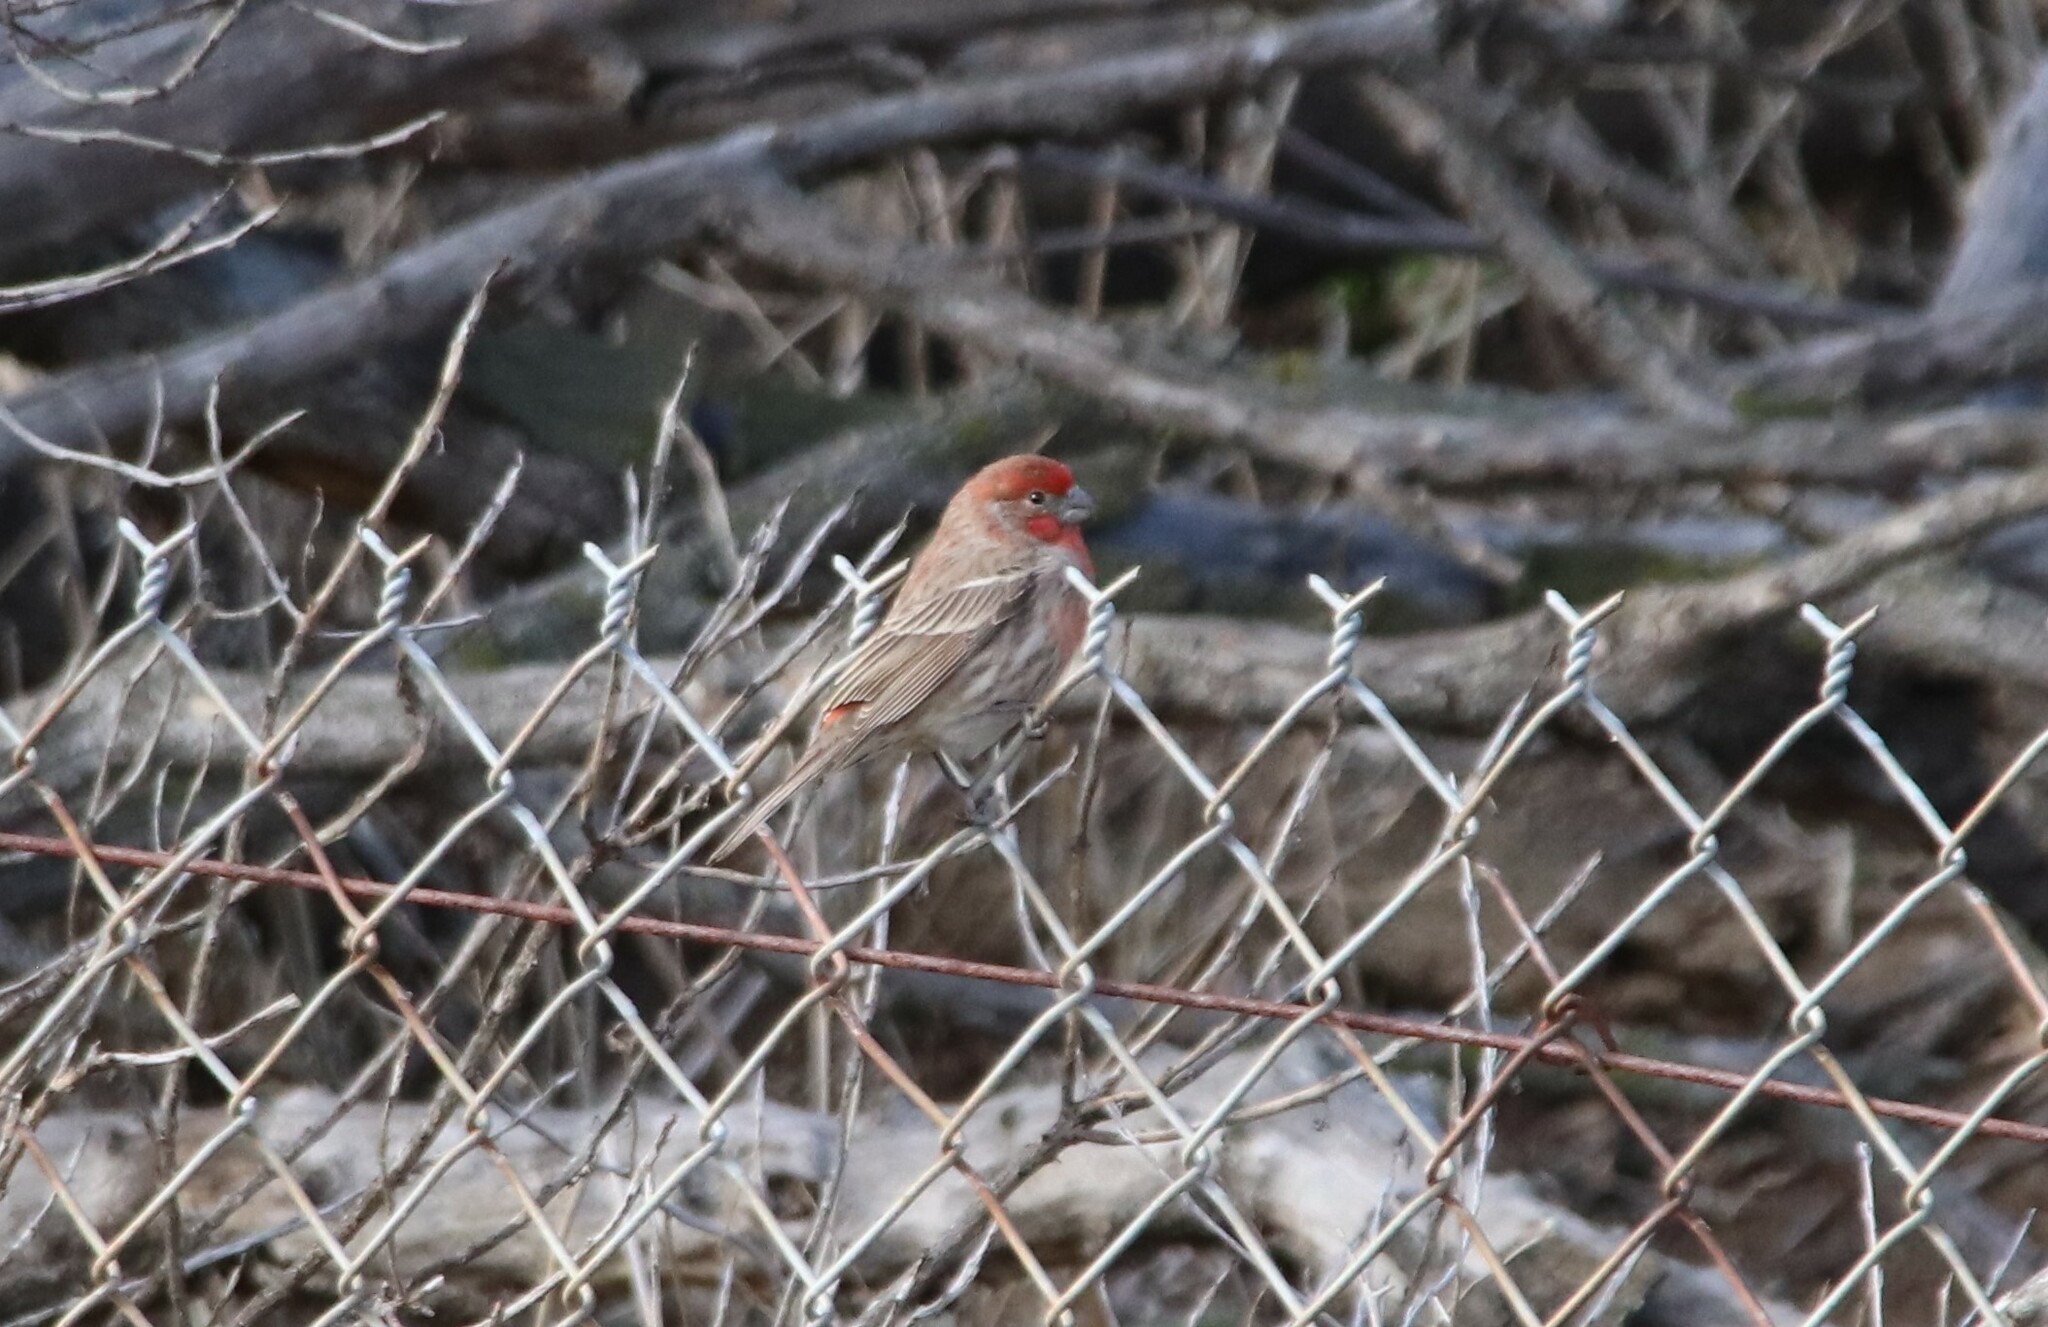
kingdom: Animalia
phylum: Chordata
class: Aves
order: Passeriformes
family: Fringillidae
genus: Haemorhous
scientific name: Haemorhous mexicanus
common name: House finch
